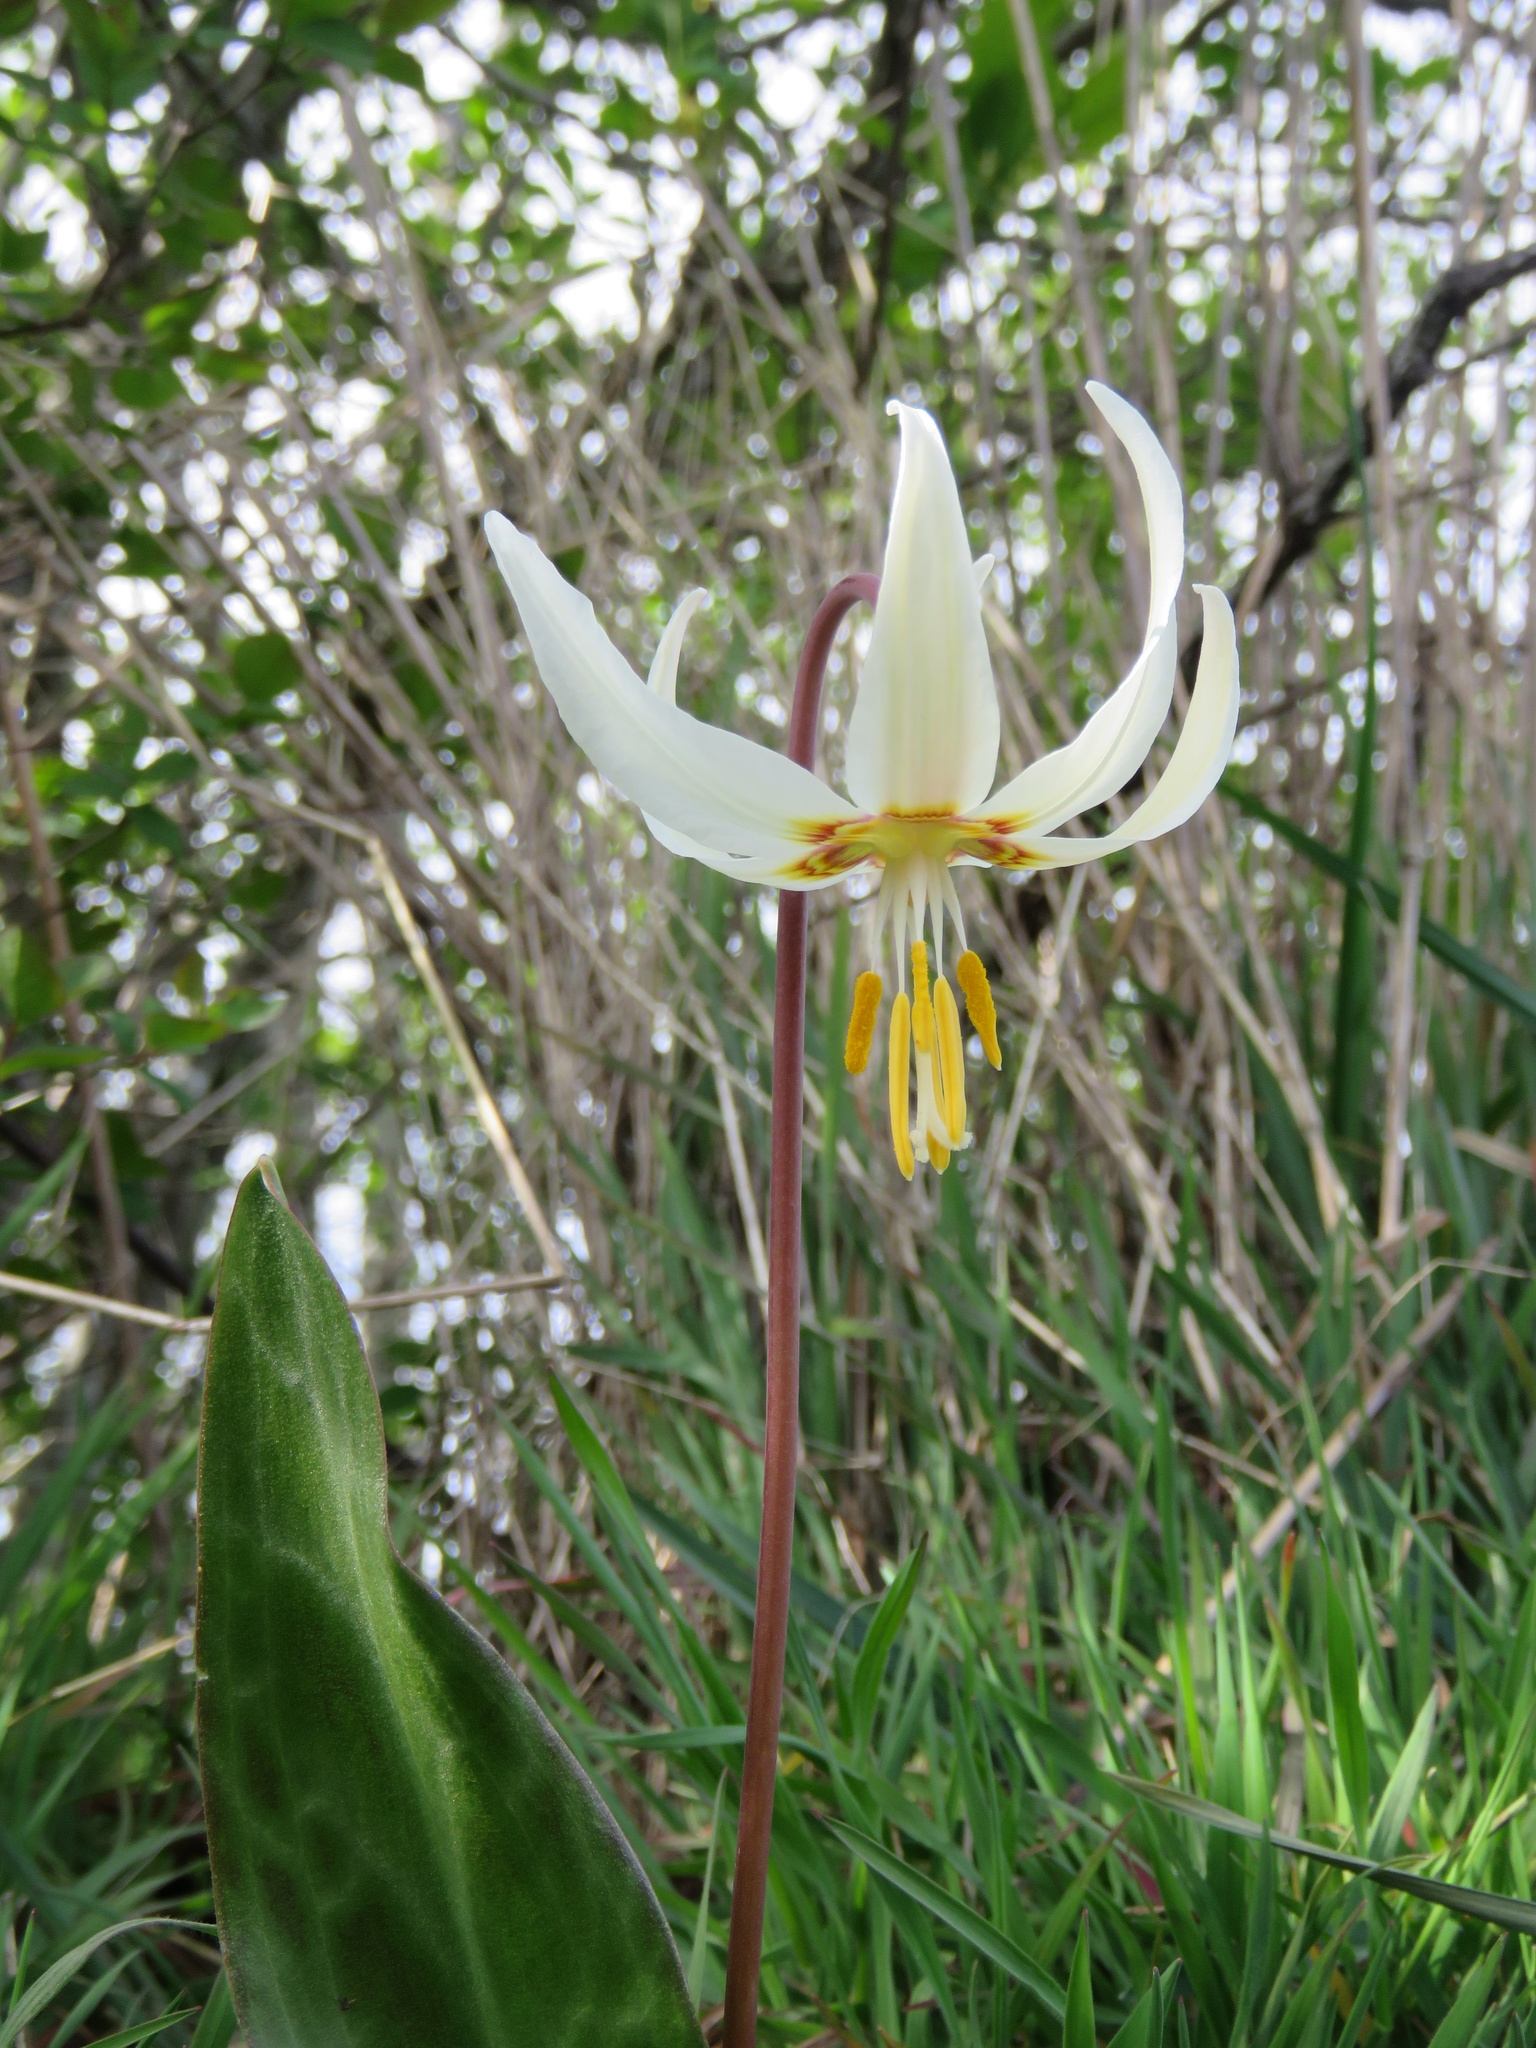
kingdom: Plantae
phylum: Tracheophyta
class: Liliopsida
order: Liliales
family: Liliaceae
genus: Erythronium
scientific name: Erythronium oregonum
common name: Giant adder's-tongue
